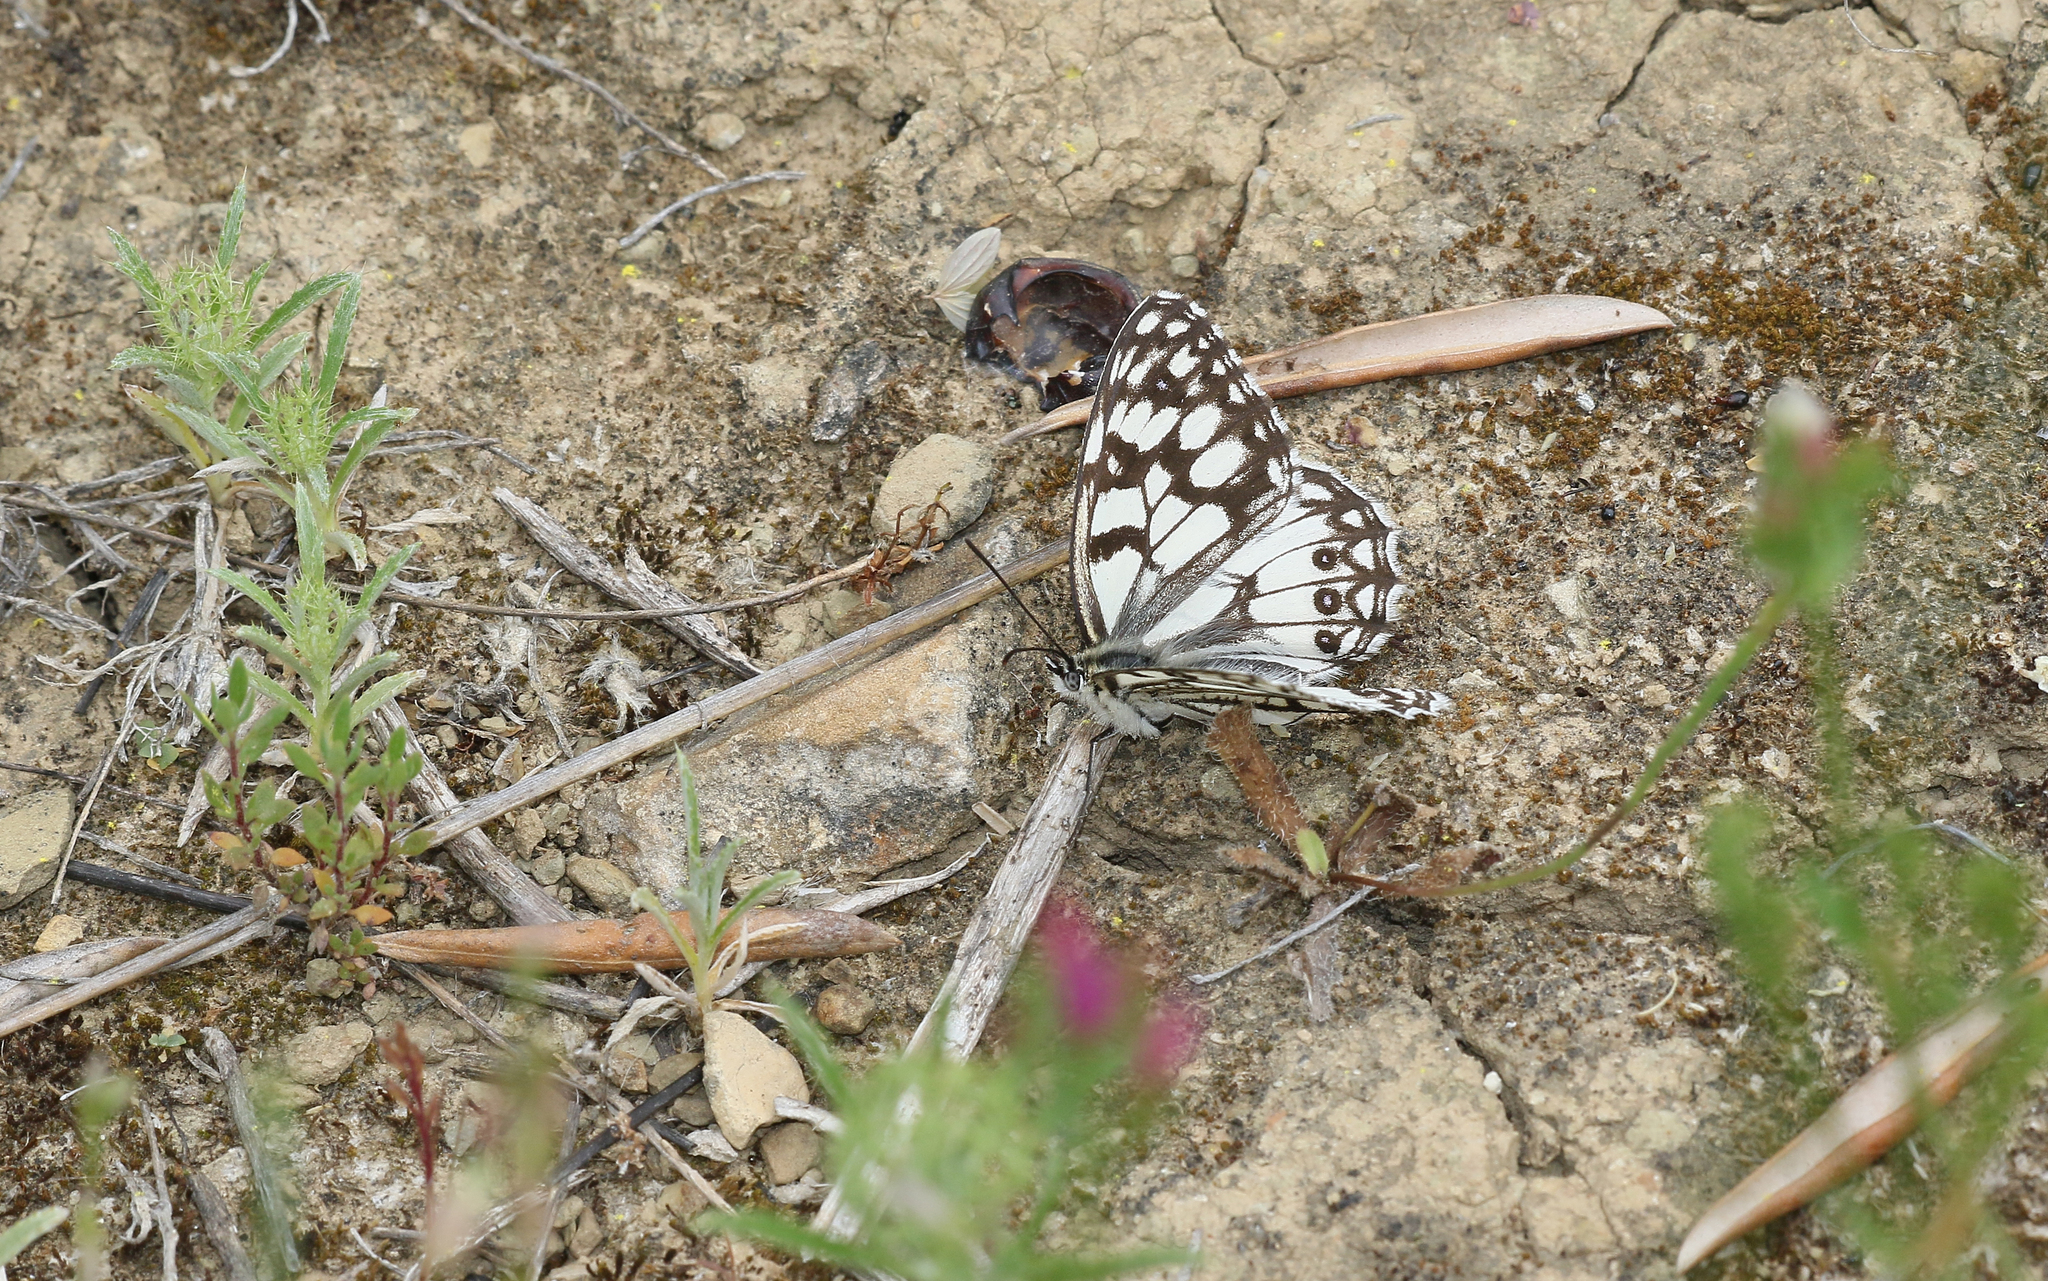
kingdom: Animalia
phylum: Arthropoda
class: Insecta
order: Lepidoptera
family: Nymphalidae
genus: Melanargia
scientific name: Melanargia ines
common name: Spanish marbled white
